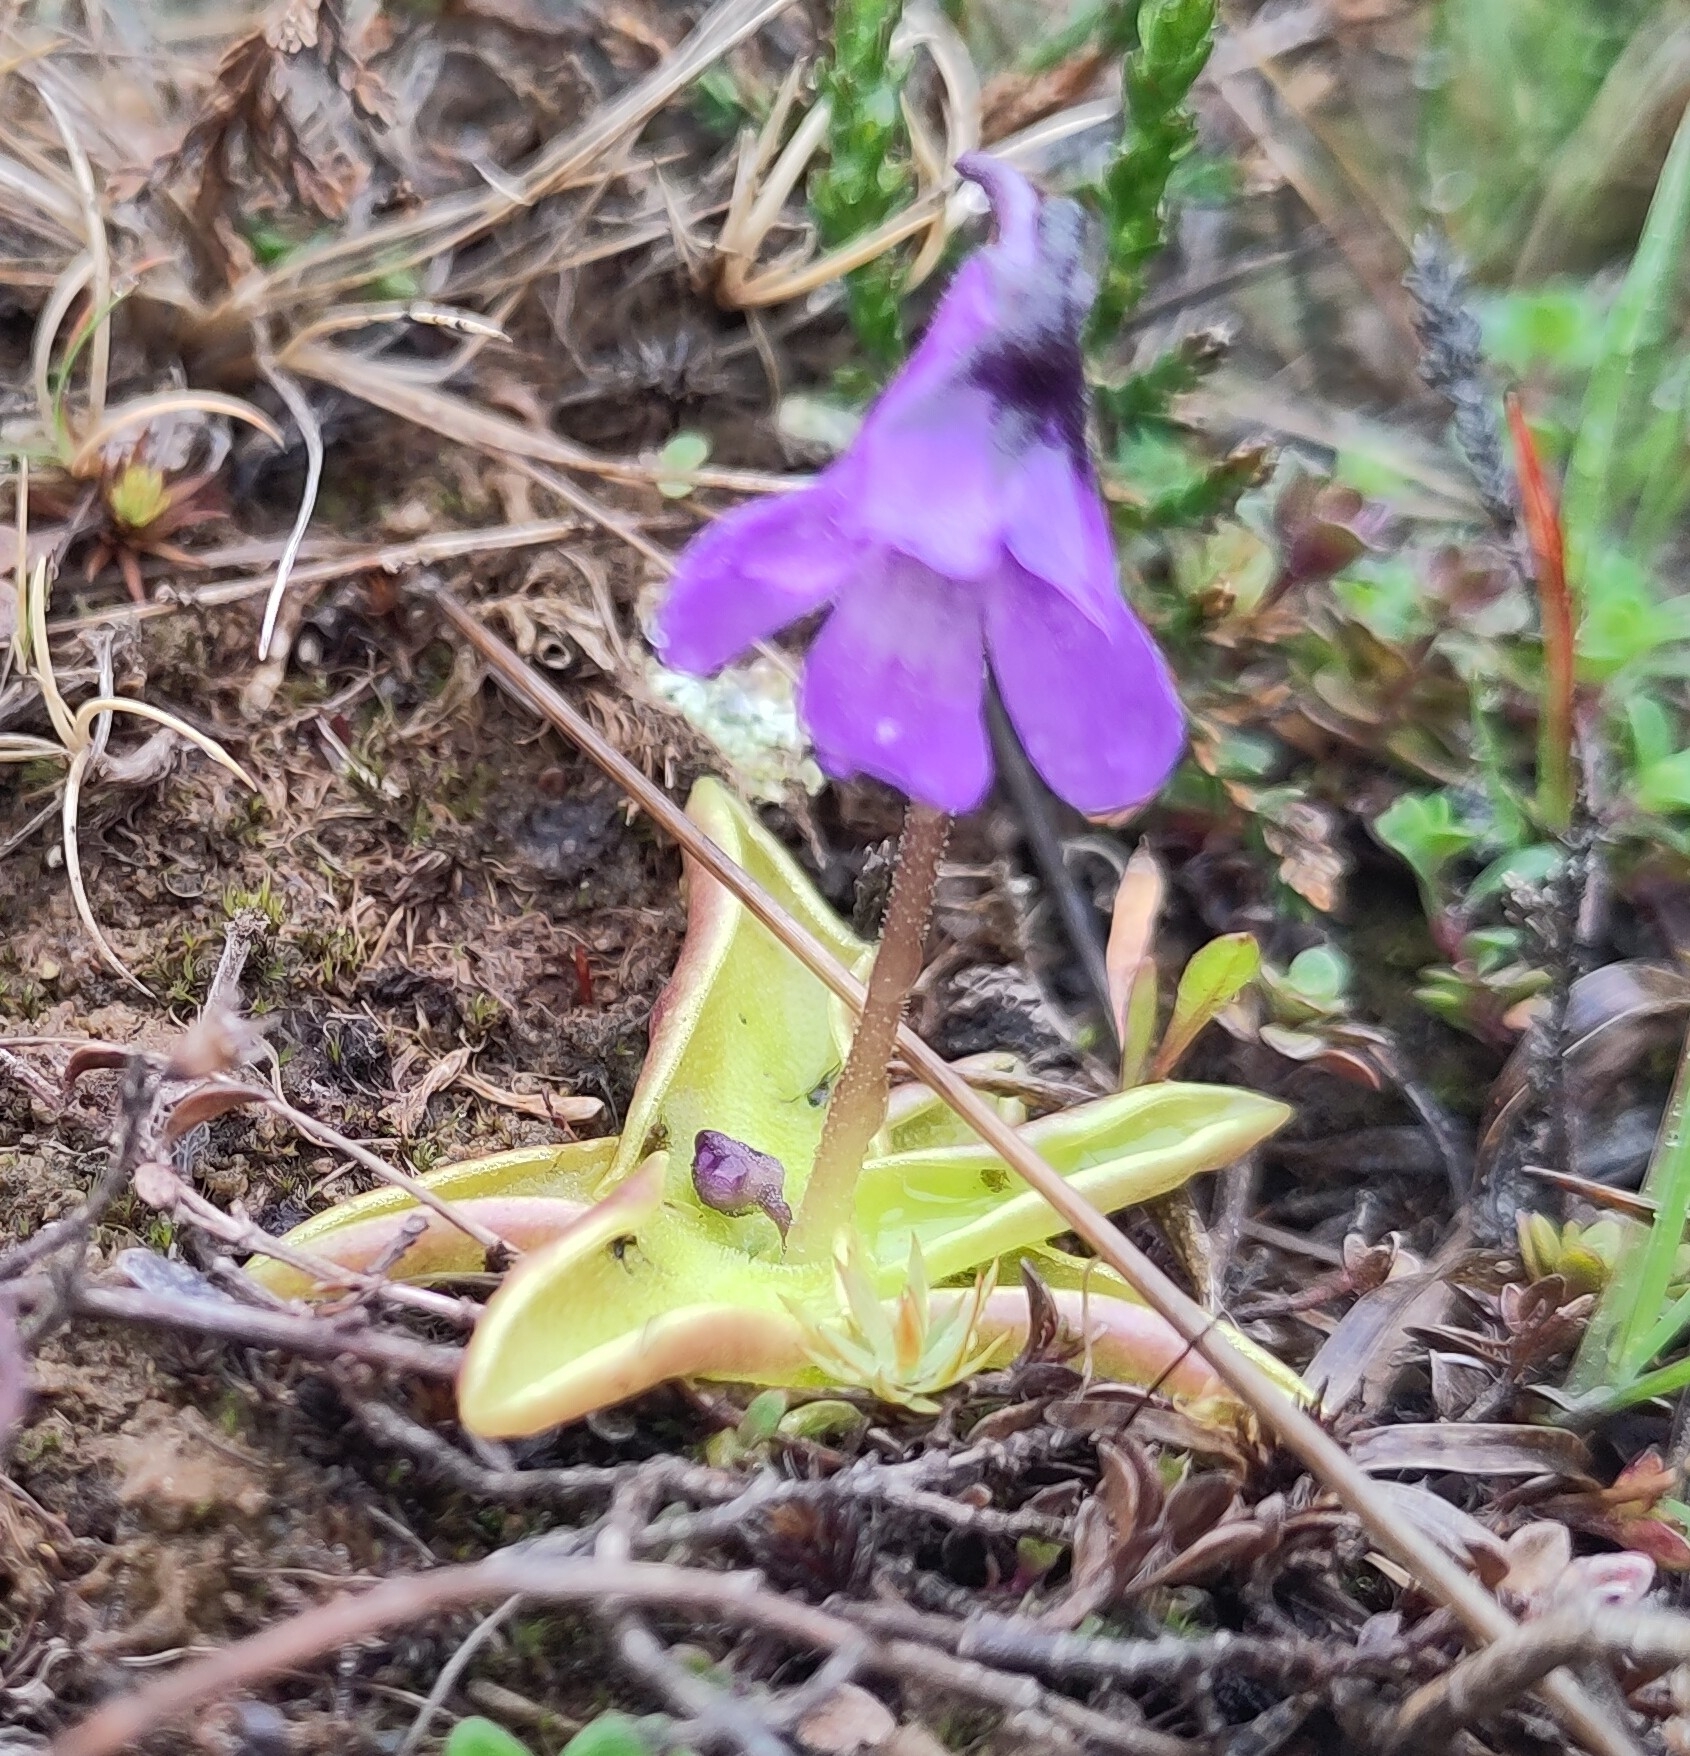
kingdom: Plantae
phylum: Tracheophyta
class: Magnoliopsida
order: Lamiales
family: Lentibulariaceae
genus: Pinguicula
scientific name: Pinguicula vulgaris
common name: Common butterwort
